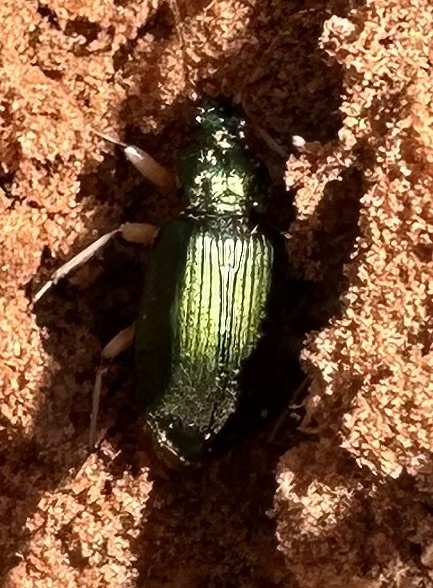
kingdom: Animalia
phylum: Arthropoda
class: Insecta
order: Coleoptera
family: Carabidae
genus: Chlaenius
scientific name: Chlaenius prasinus
